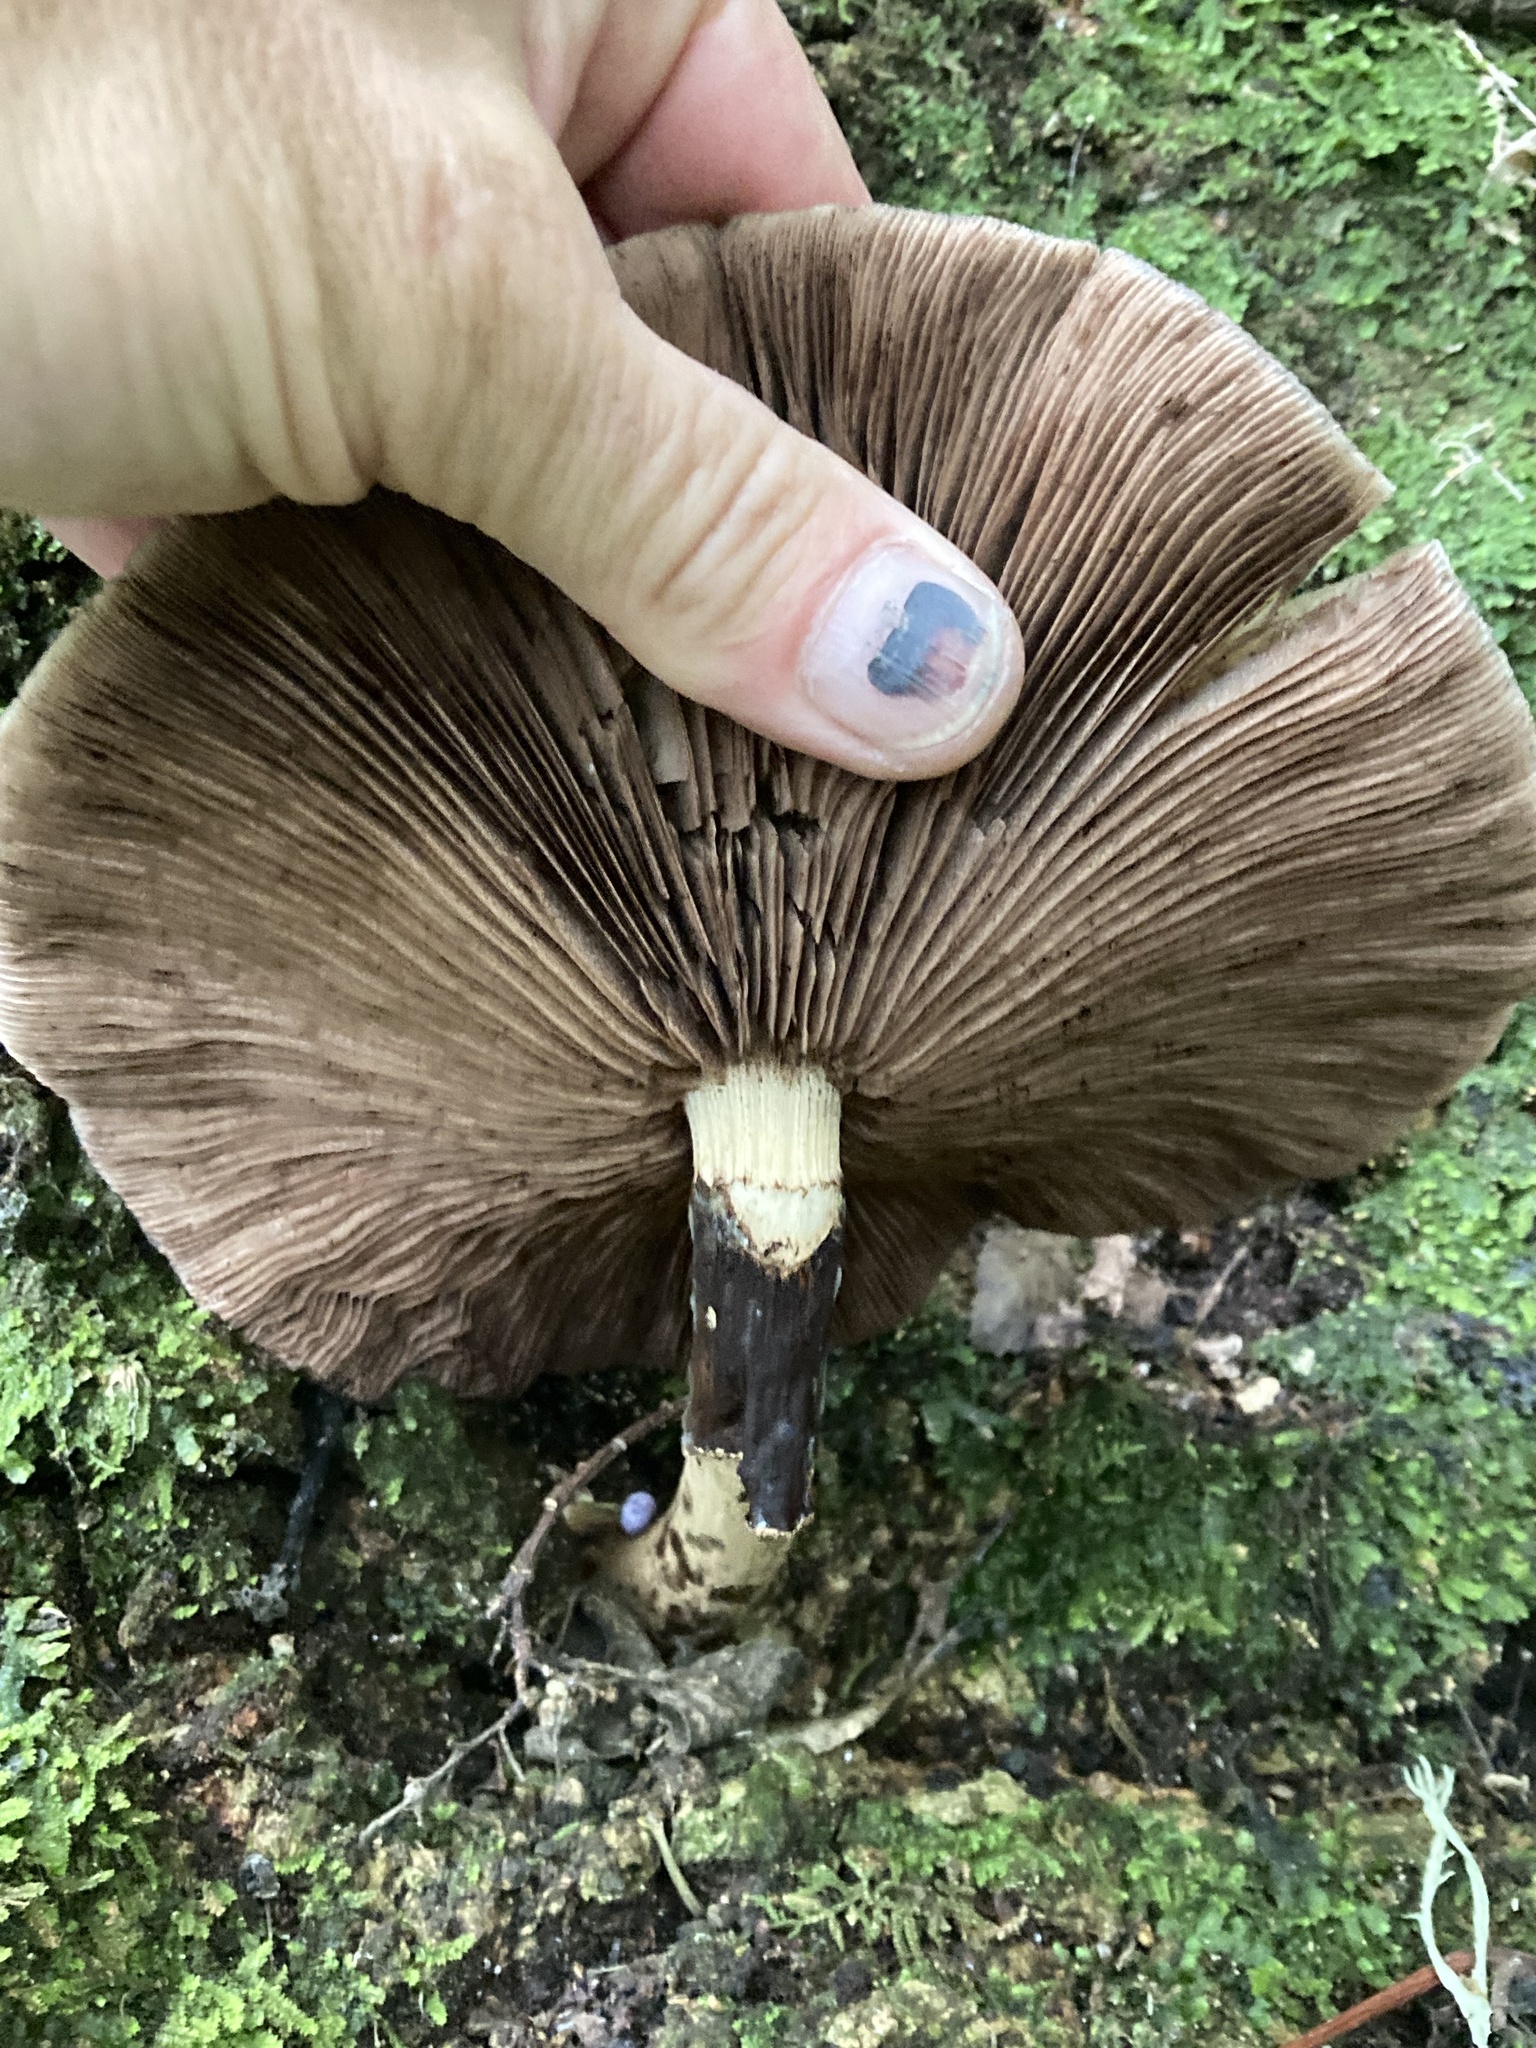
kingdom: Fungi
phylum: Basidiomycota
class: Agaricomycetes
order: Agaricales
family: Tubariaceae
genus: Cyclocybe
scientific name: Cyclocybe parasitica
